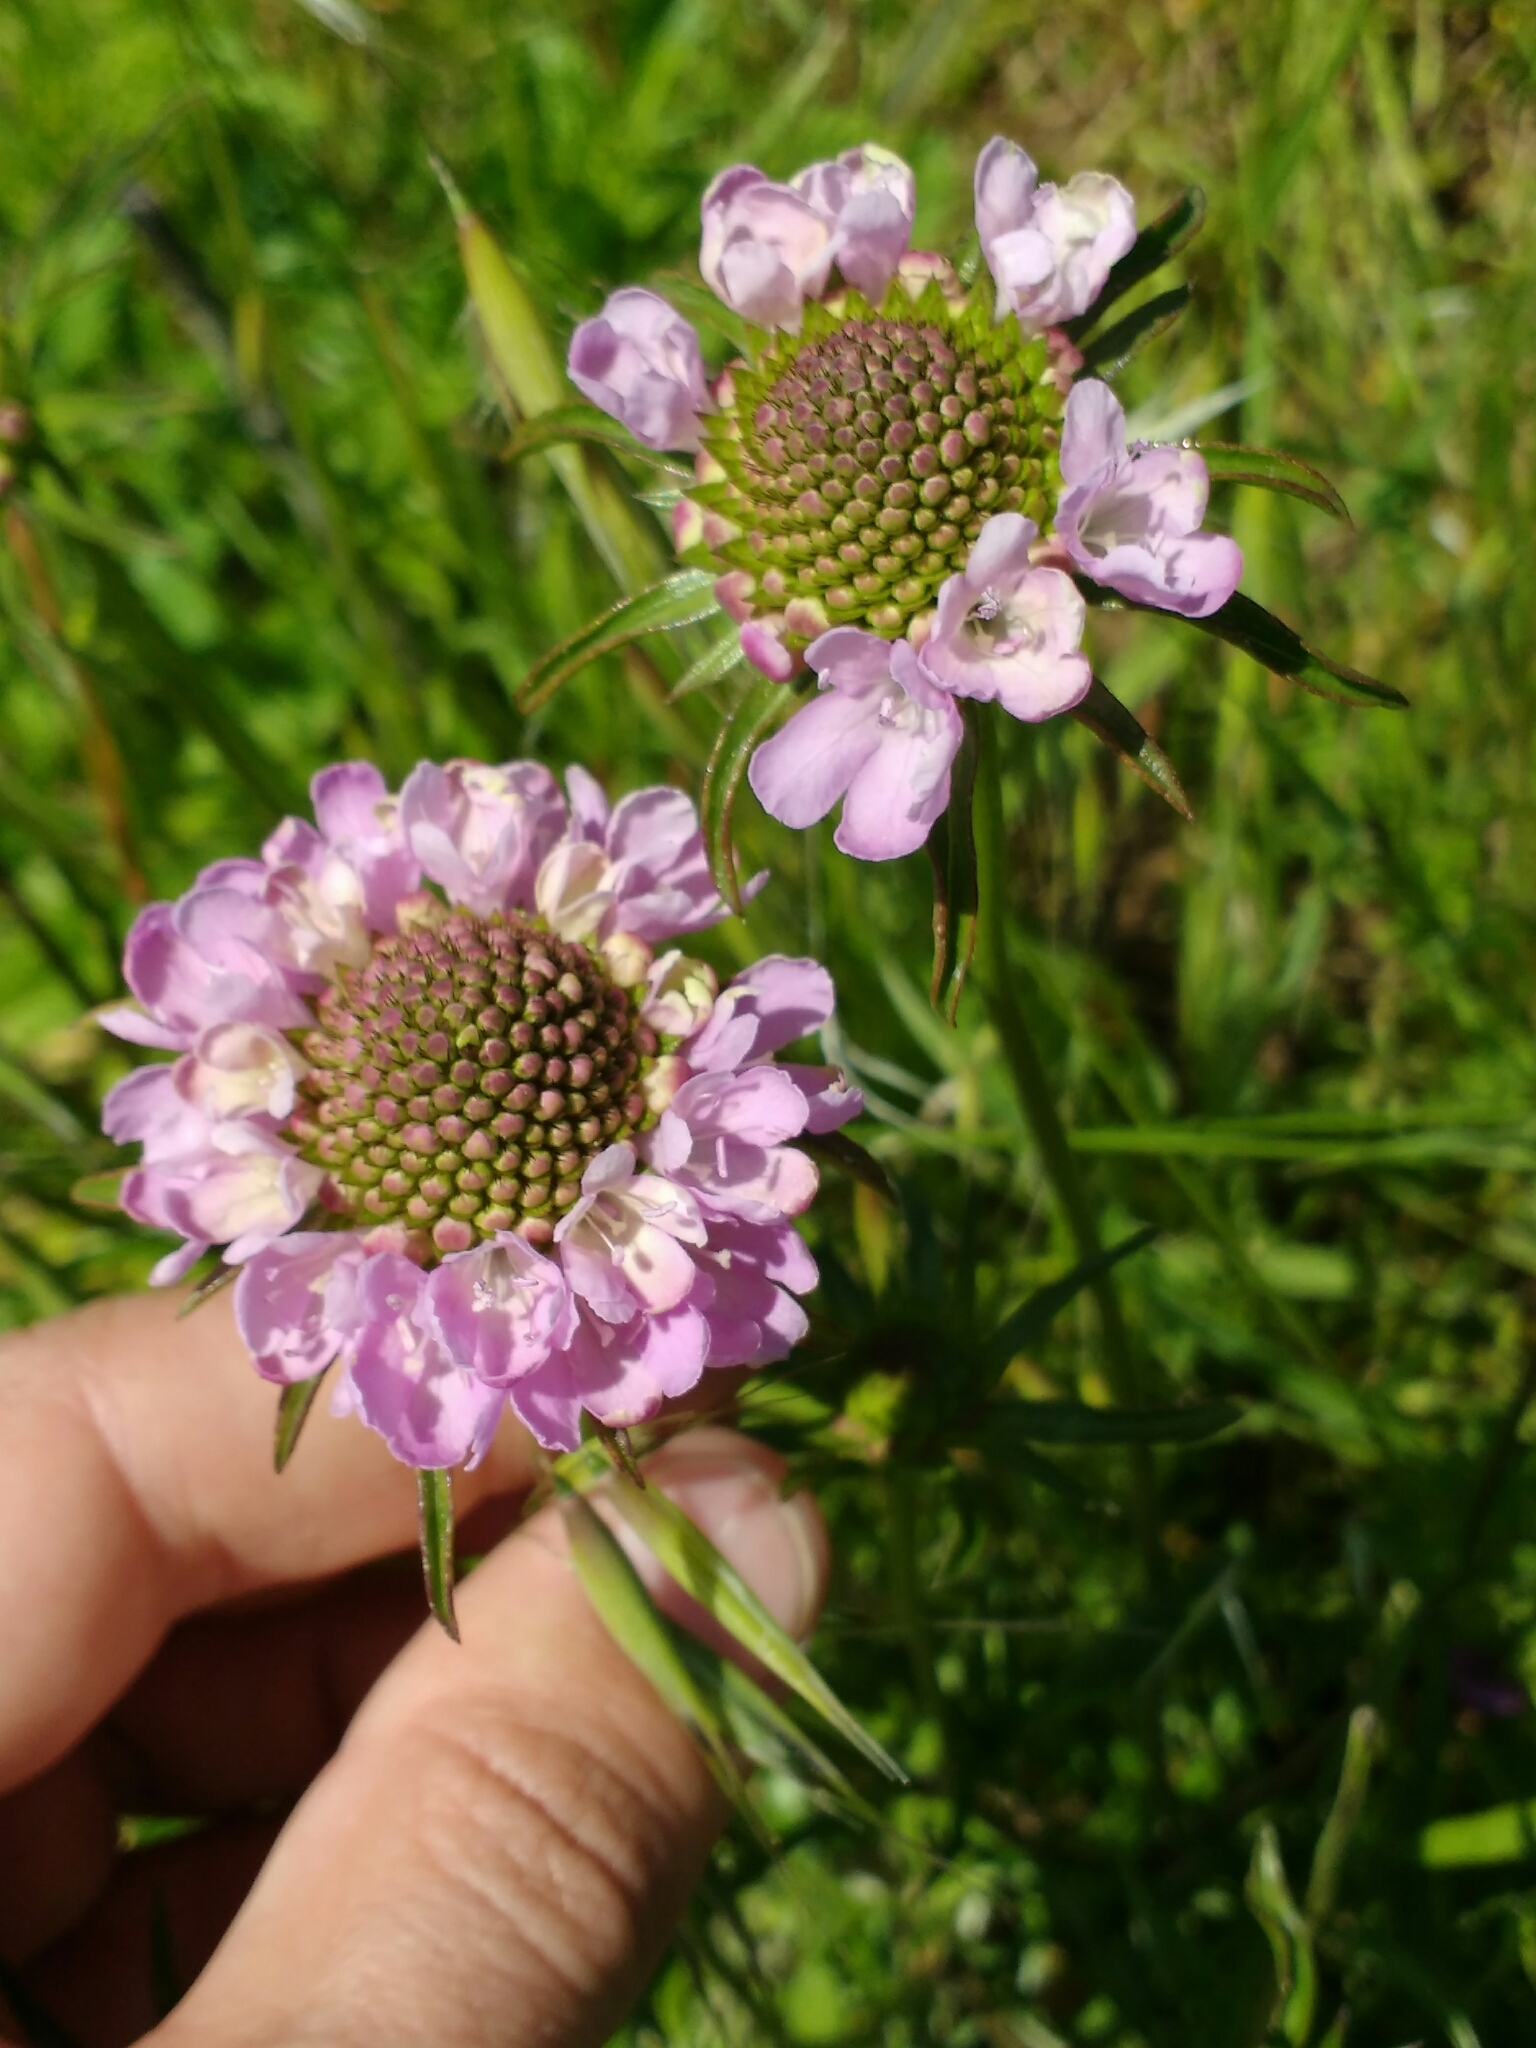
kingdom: Plantae
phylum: Tracheophyta
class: Magnoliopsida
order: Dipsacales
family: Caprifoliaceae
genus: Sixalix
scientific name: Sixalix atropurpurea
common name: Sweet scabious
